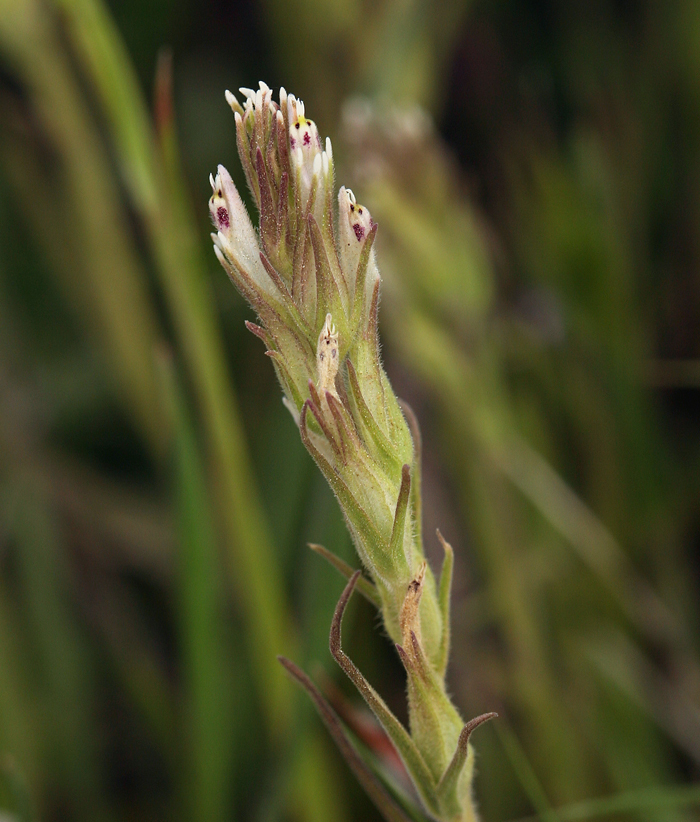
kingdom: Plantae
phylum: Tracheophyta
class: Magnoliopsida
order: Lamiales
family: Orobanchaceae
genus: Castilleja
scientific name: Castilleja attenuata
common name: Valley tassels
